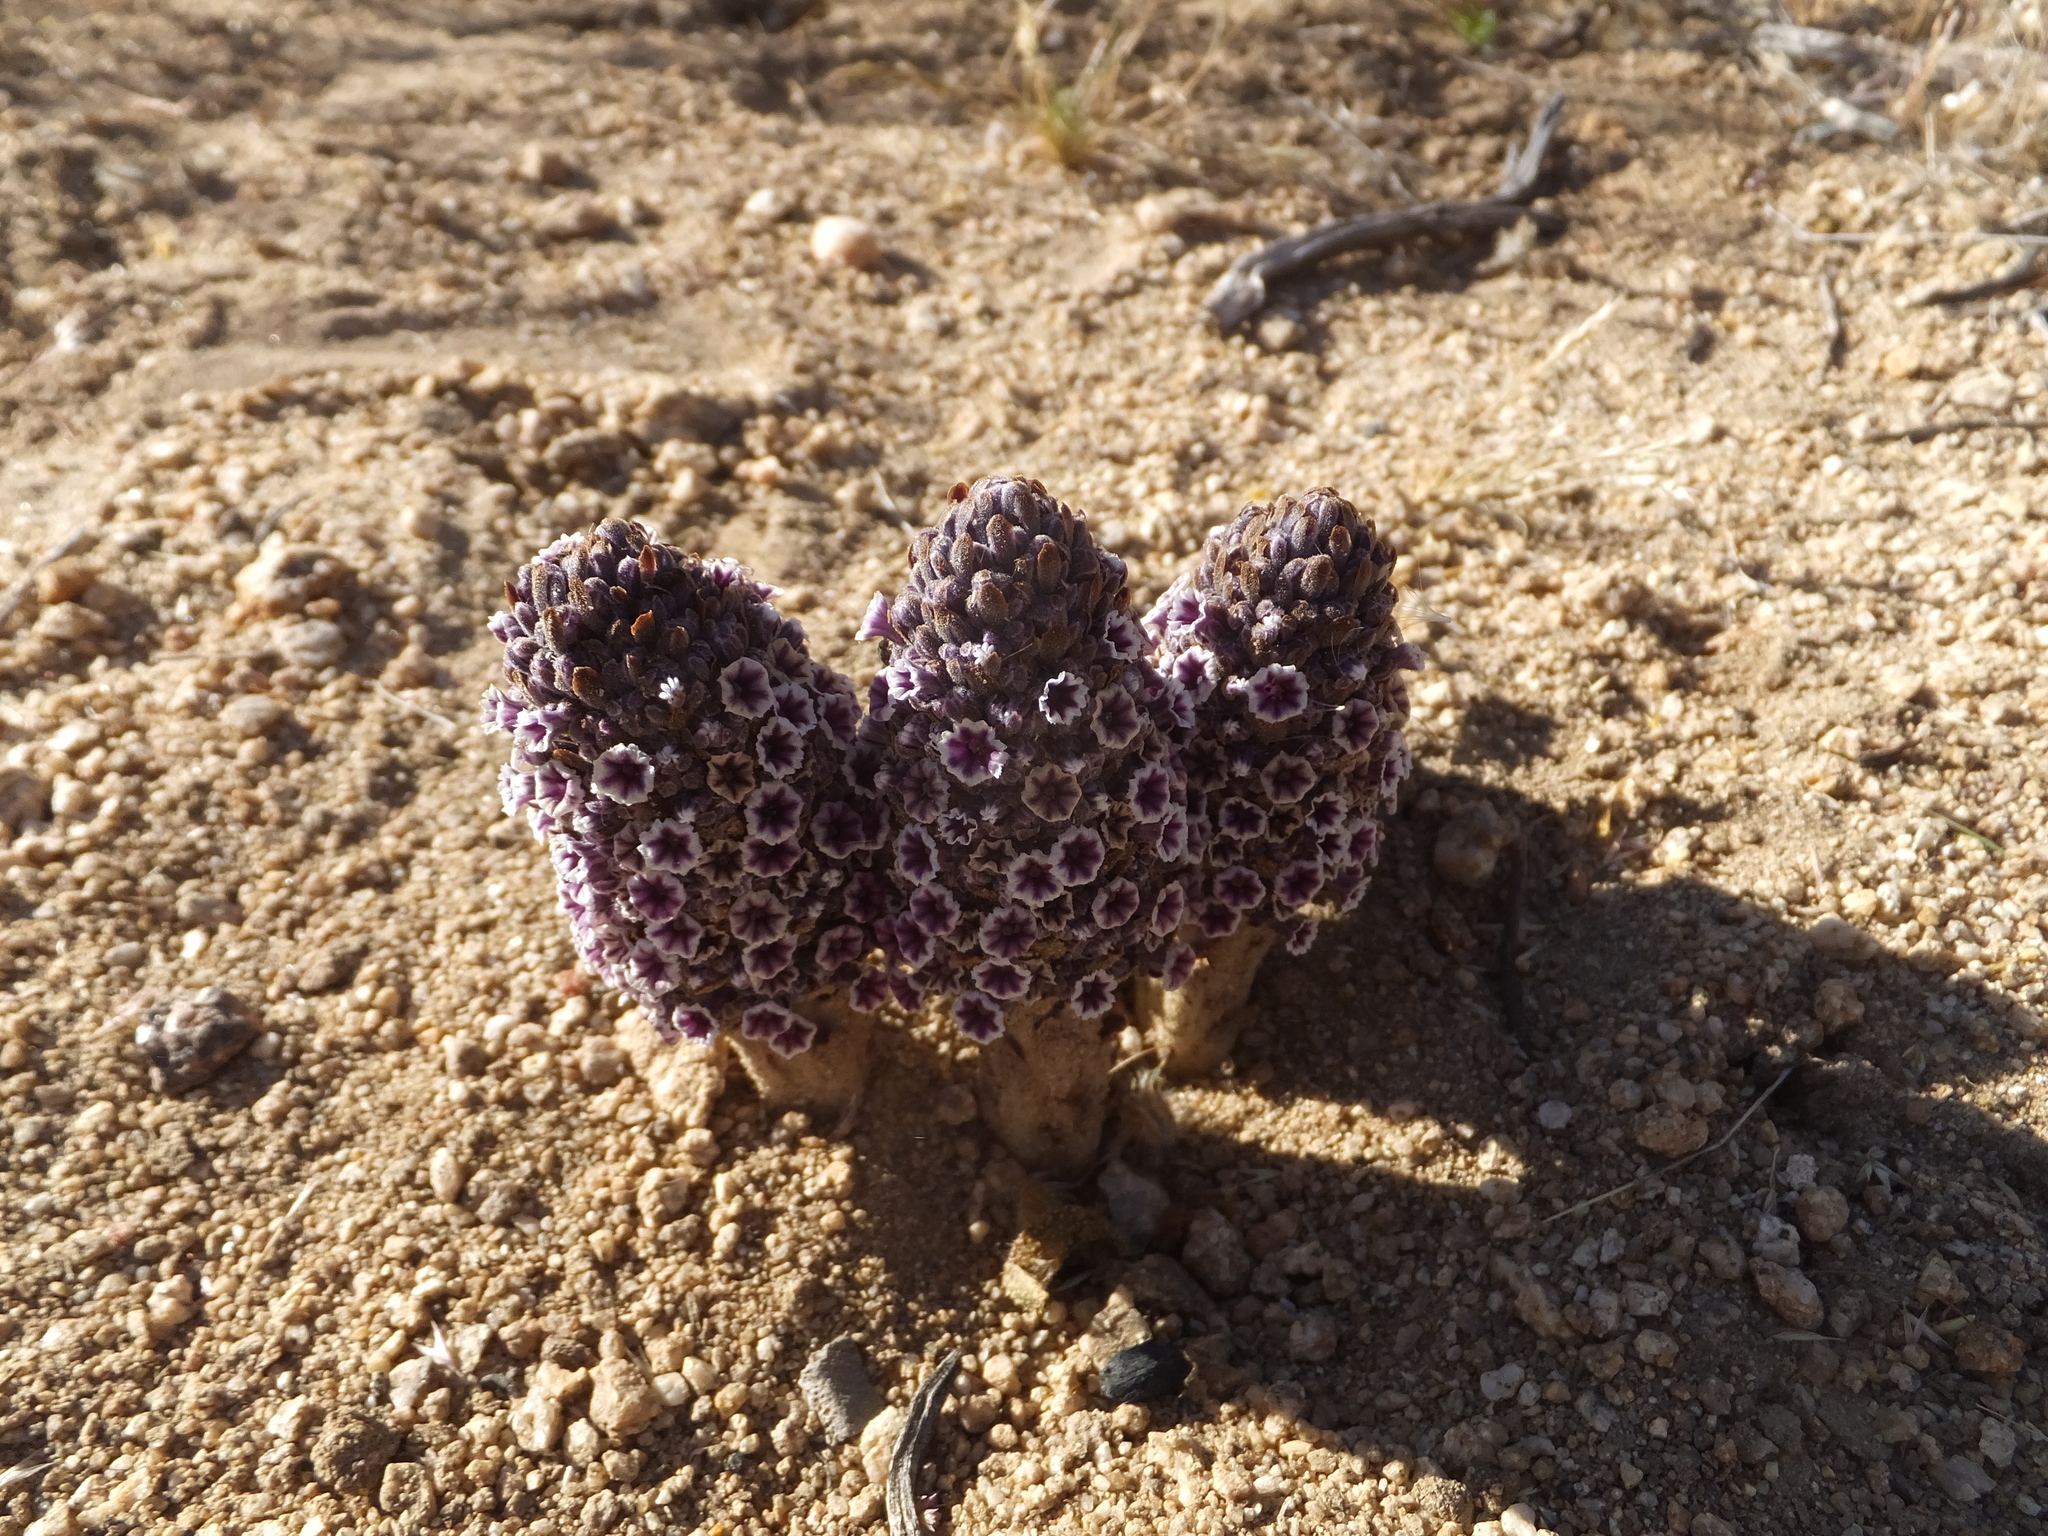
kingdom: Plantae
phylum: Tracheophyta
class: Magnoliopsida
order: Boraginales
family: Lennoaceae
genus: Pholisma
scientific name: Pholisma arenarium
